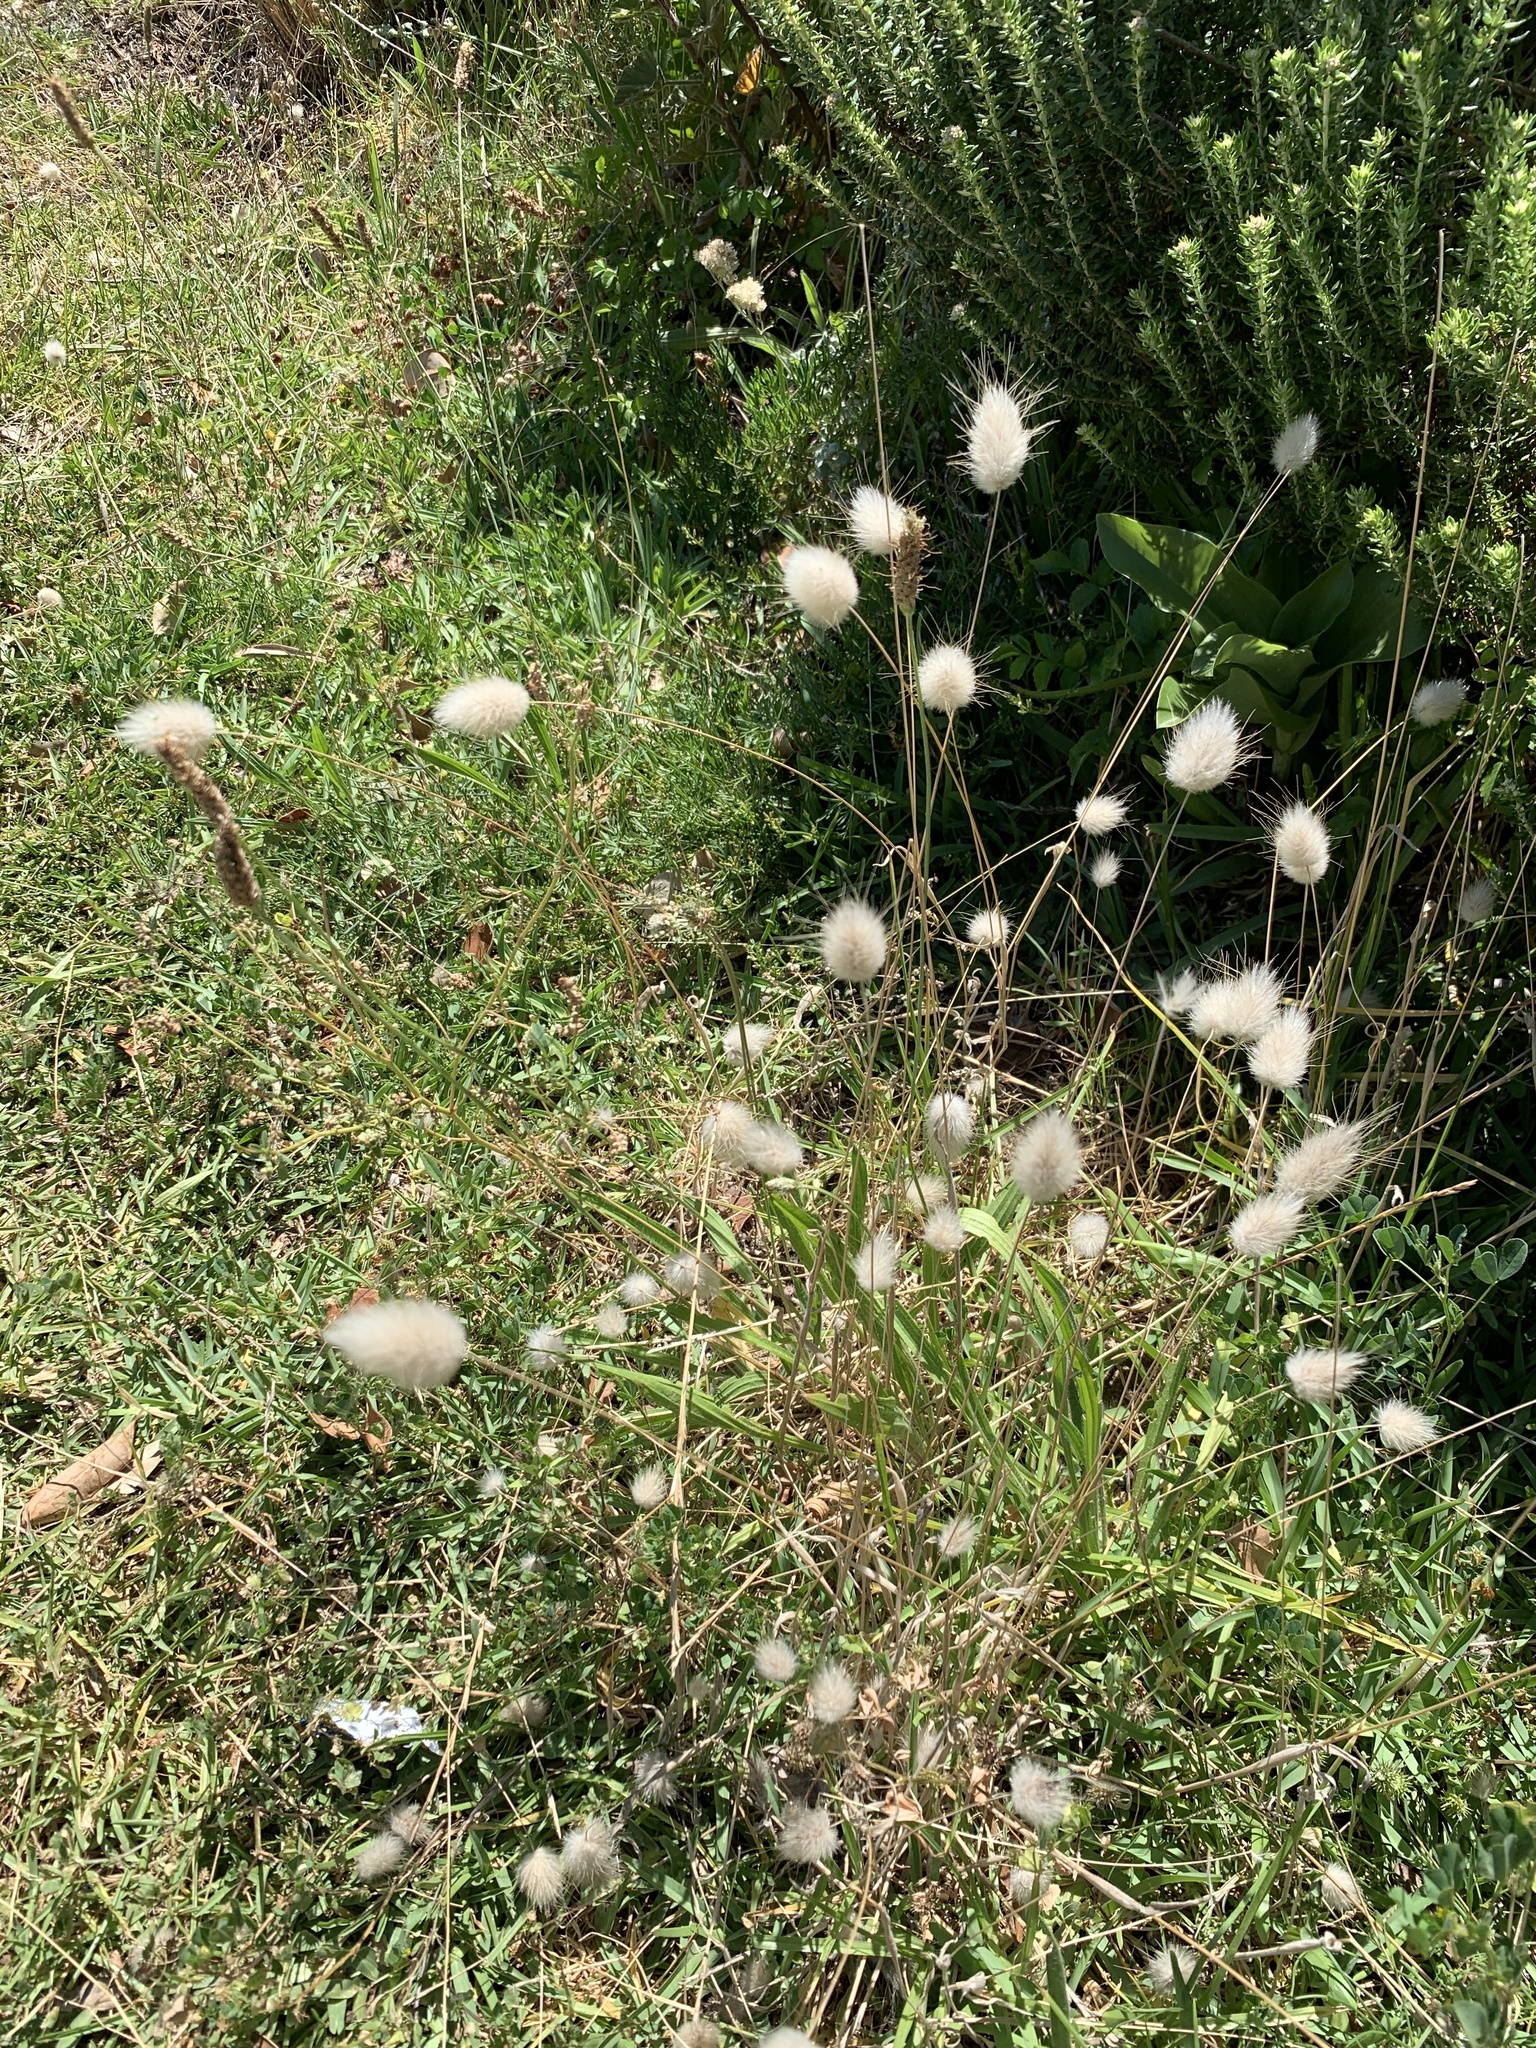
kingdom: Plantae
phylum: Tracheophyta
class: Liliopsida
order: Poales
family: Poaceae
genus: Lagurus
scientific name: Lagurus ovatus
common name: Hare's-tail
